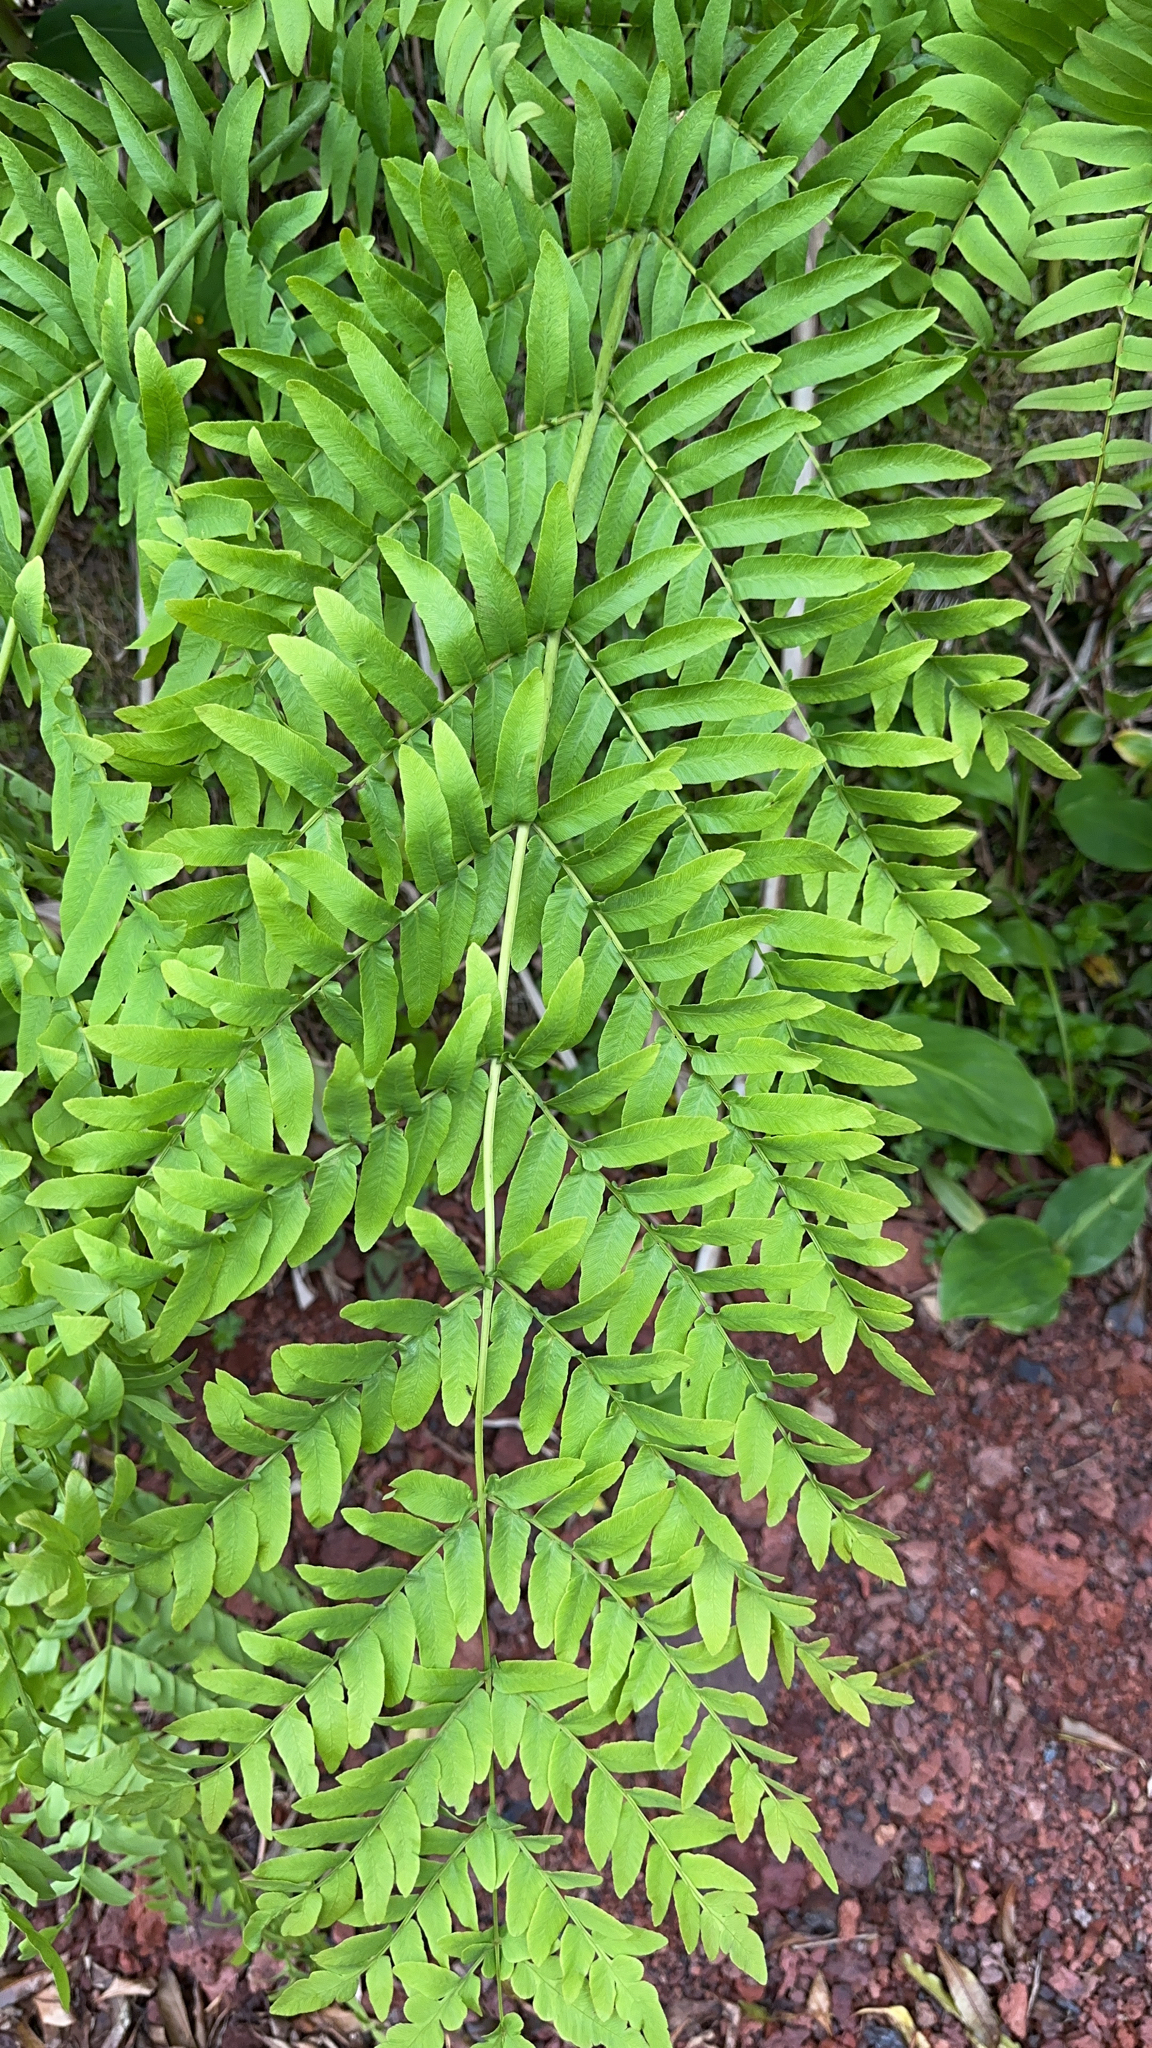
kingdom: Plantae
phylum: Tracheophyta
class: Polypodiopsida
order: Osmundales
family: Osmundaceae
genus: Osmunda
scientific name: Osmunda regalis
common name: Royal fern
